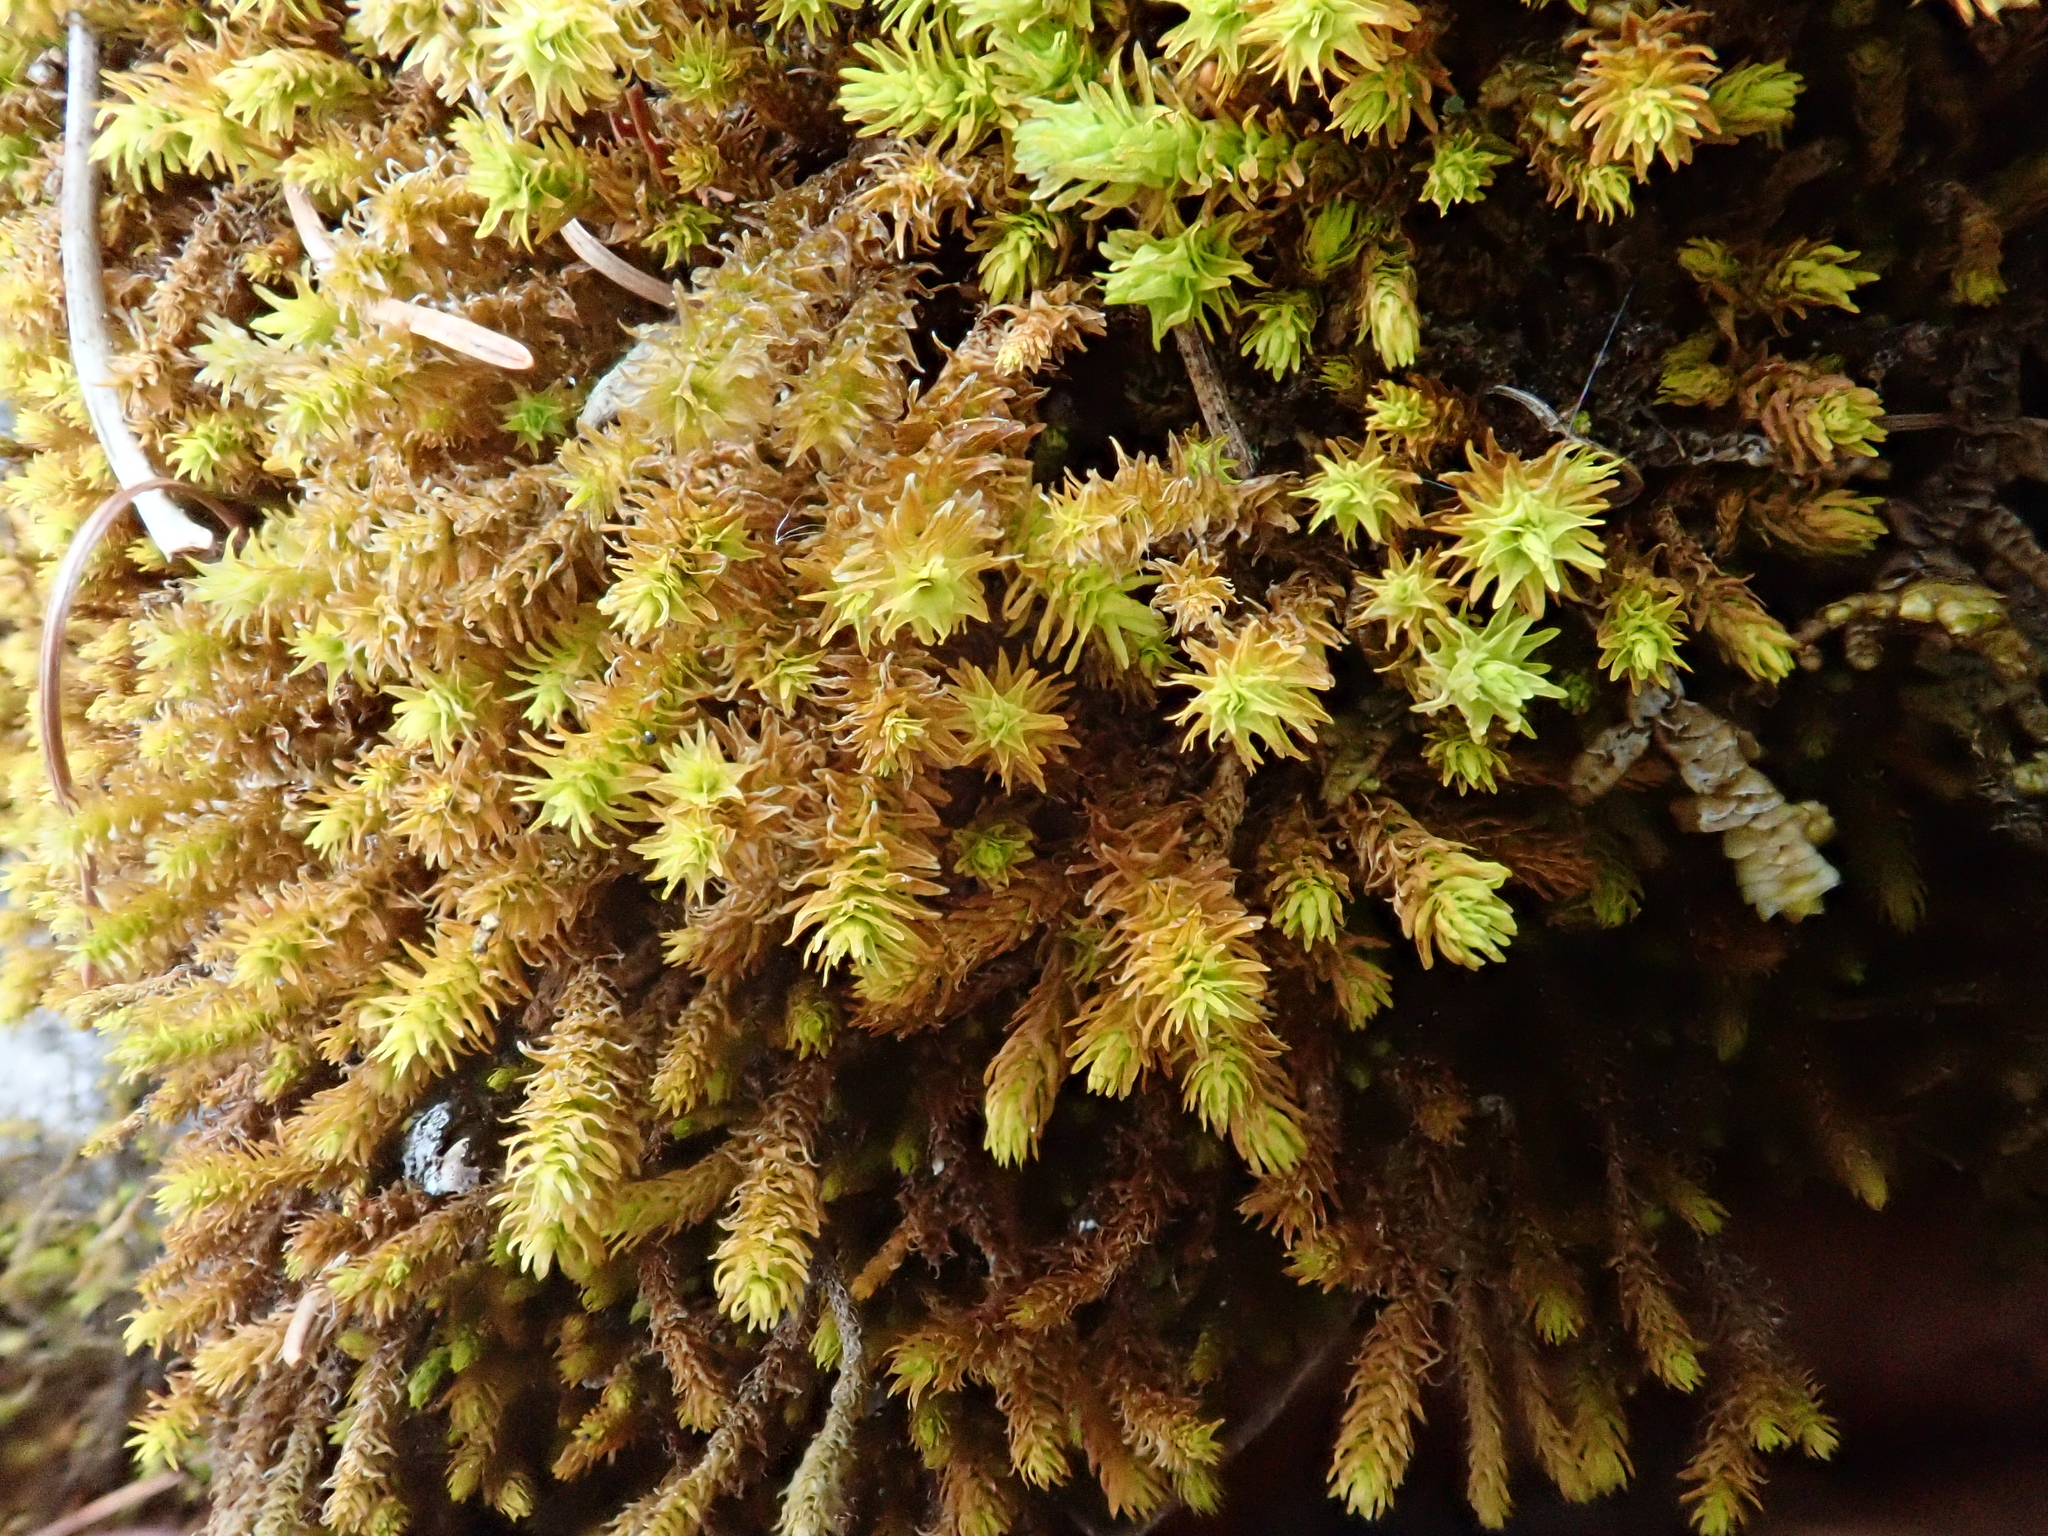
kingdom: Plantae
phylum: Bryophyta
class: Bryopsida
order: Hypnales
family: Anomodontaceae
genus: Anomodon
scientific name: Anomodon viticulosus
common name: Tall anomodon
